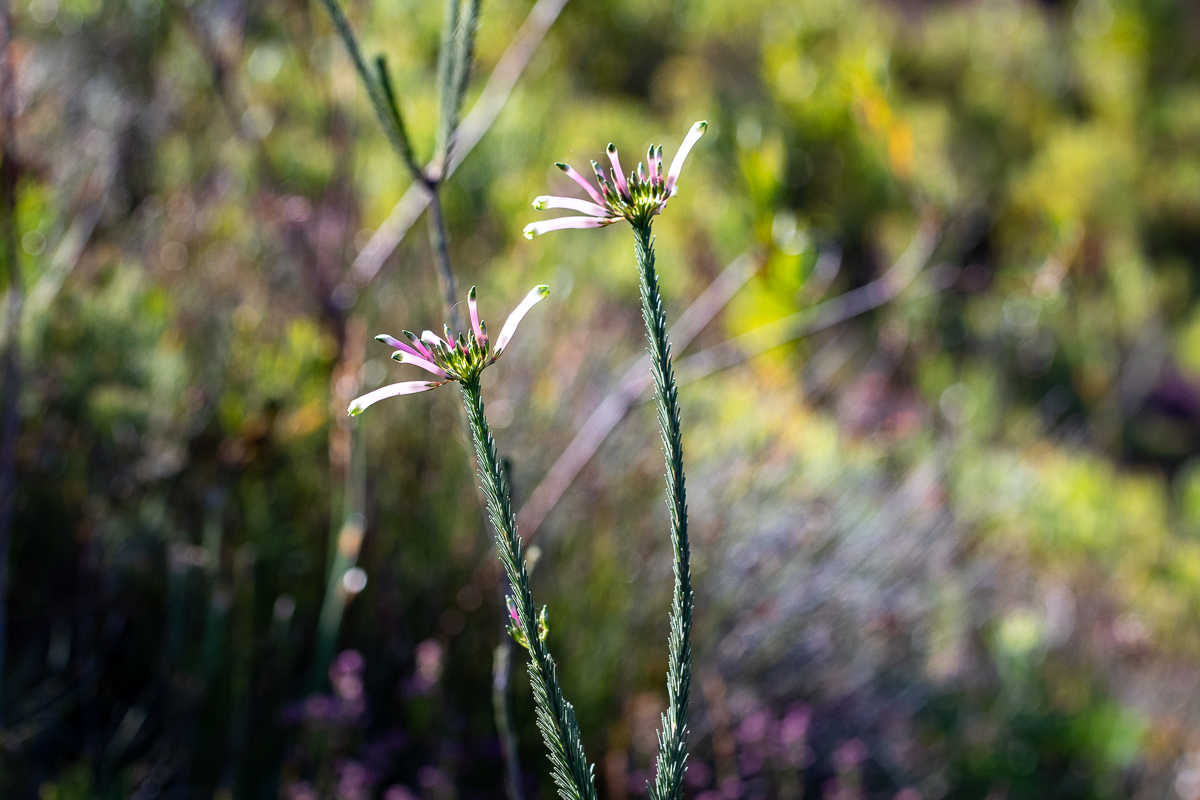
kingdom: Plantae
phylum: Tracheophyta
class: Magnoliopsida
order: Ericales
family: Ericaceae
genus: Erica
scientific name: Erica fascicularis
